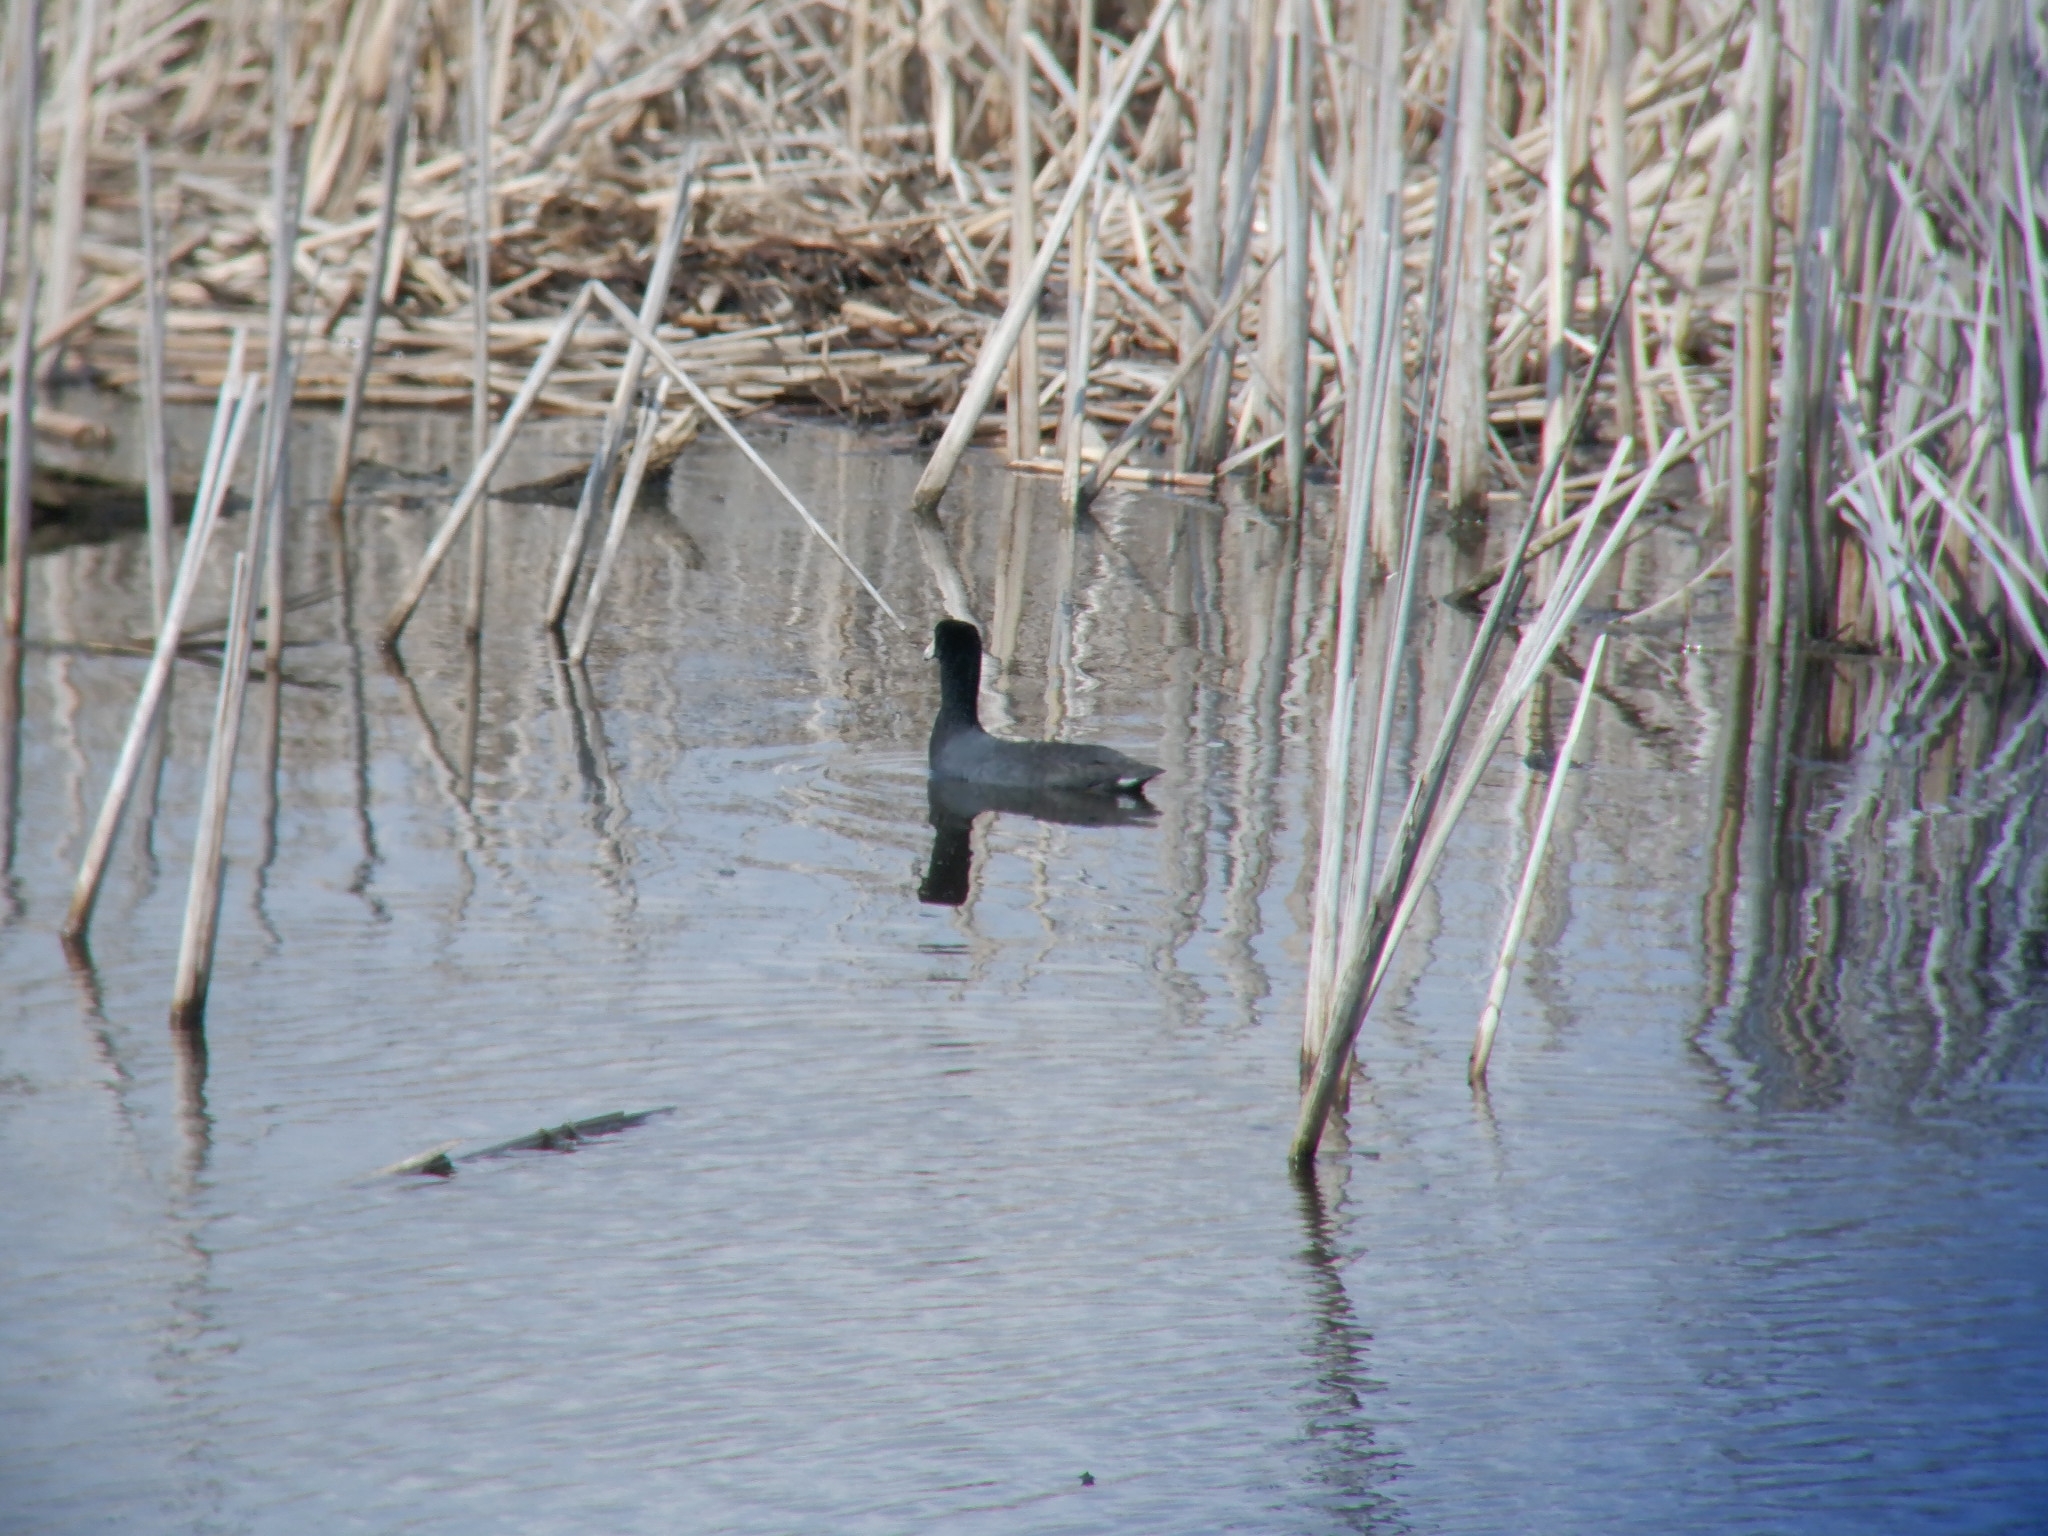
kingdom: Animalia
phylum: Chordata
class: Aves
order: Gruiformes
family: Rallidae
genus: Fulica
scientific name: Fulica americana
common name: American coot
